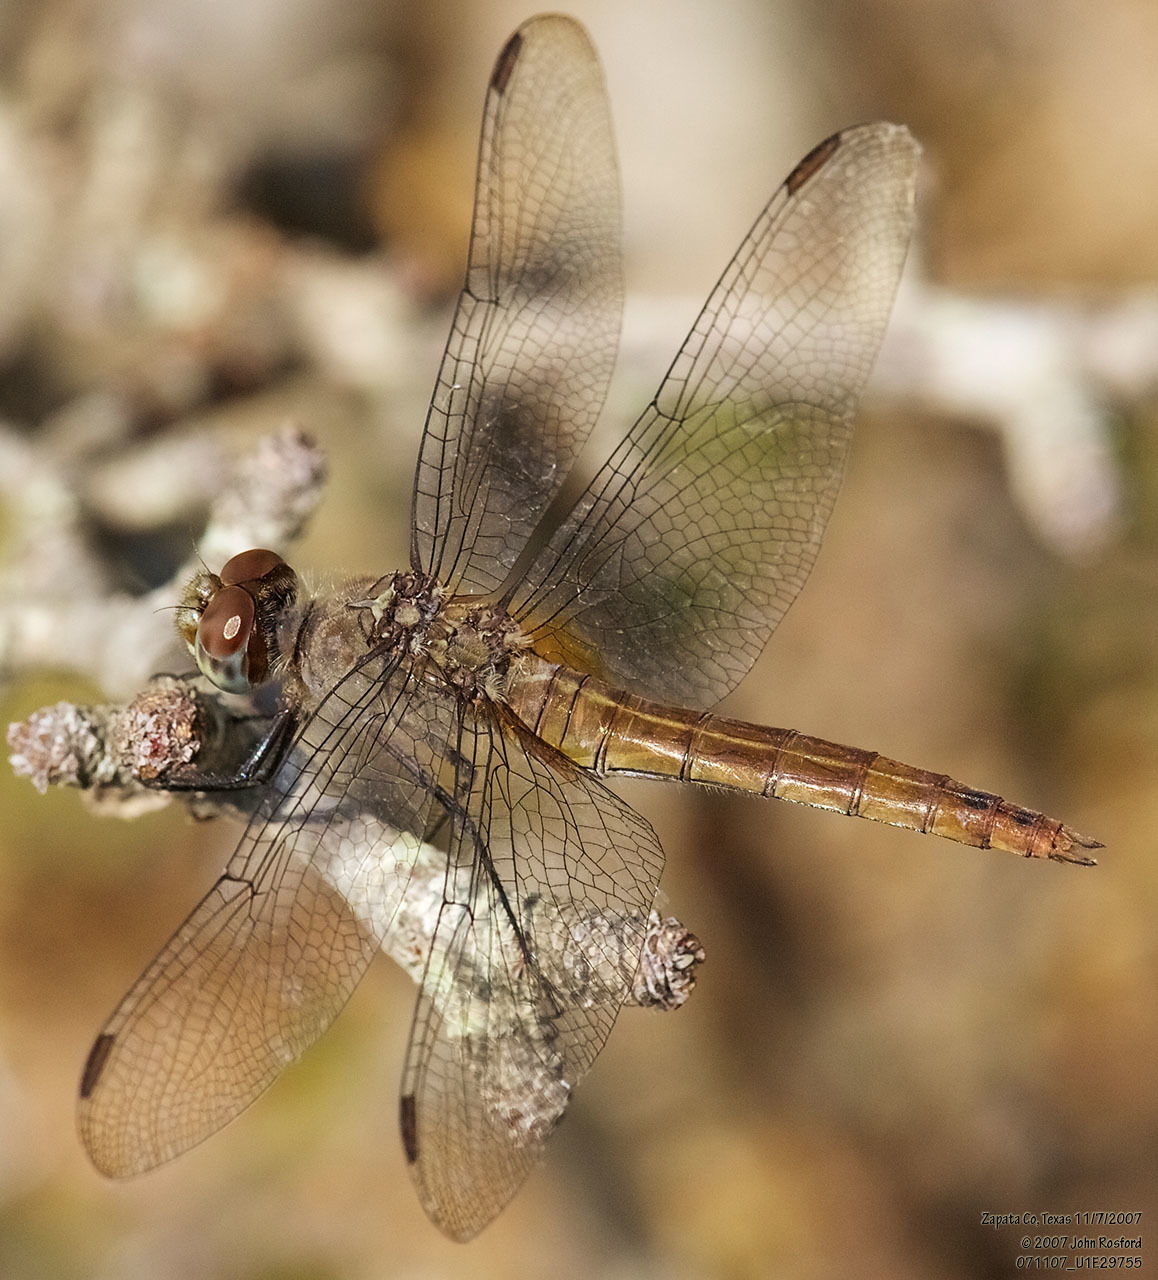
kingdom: Animalia
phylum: Arthropoda
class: Insecta
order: Odonata
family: Libellulidae
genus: Brachymesia
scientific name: Brachymesia furcata
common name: Red-taled pennant
